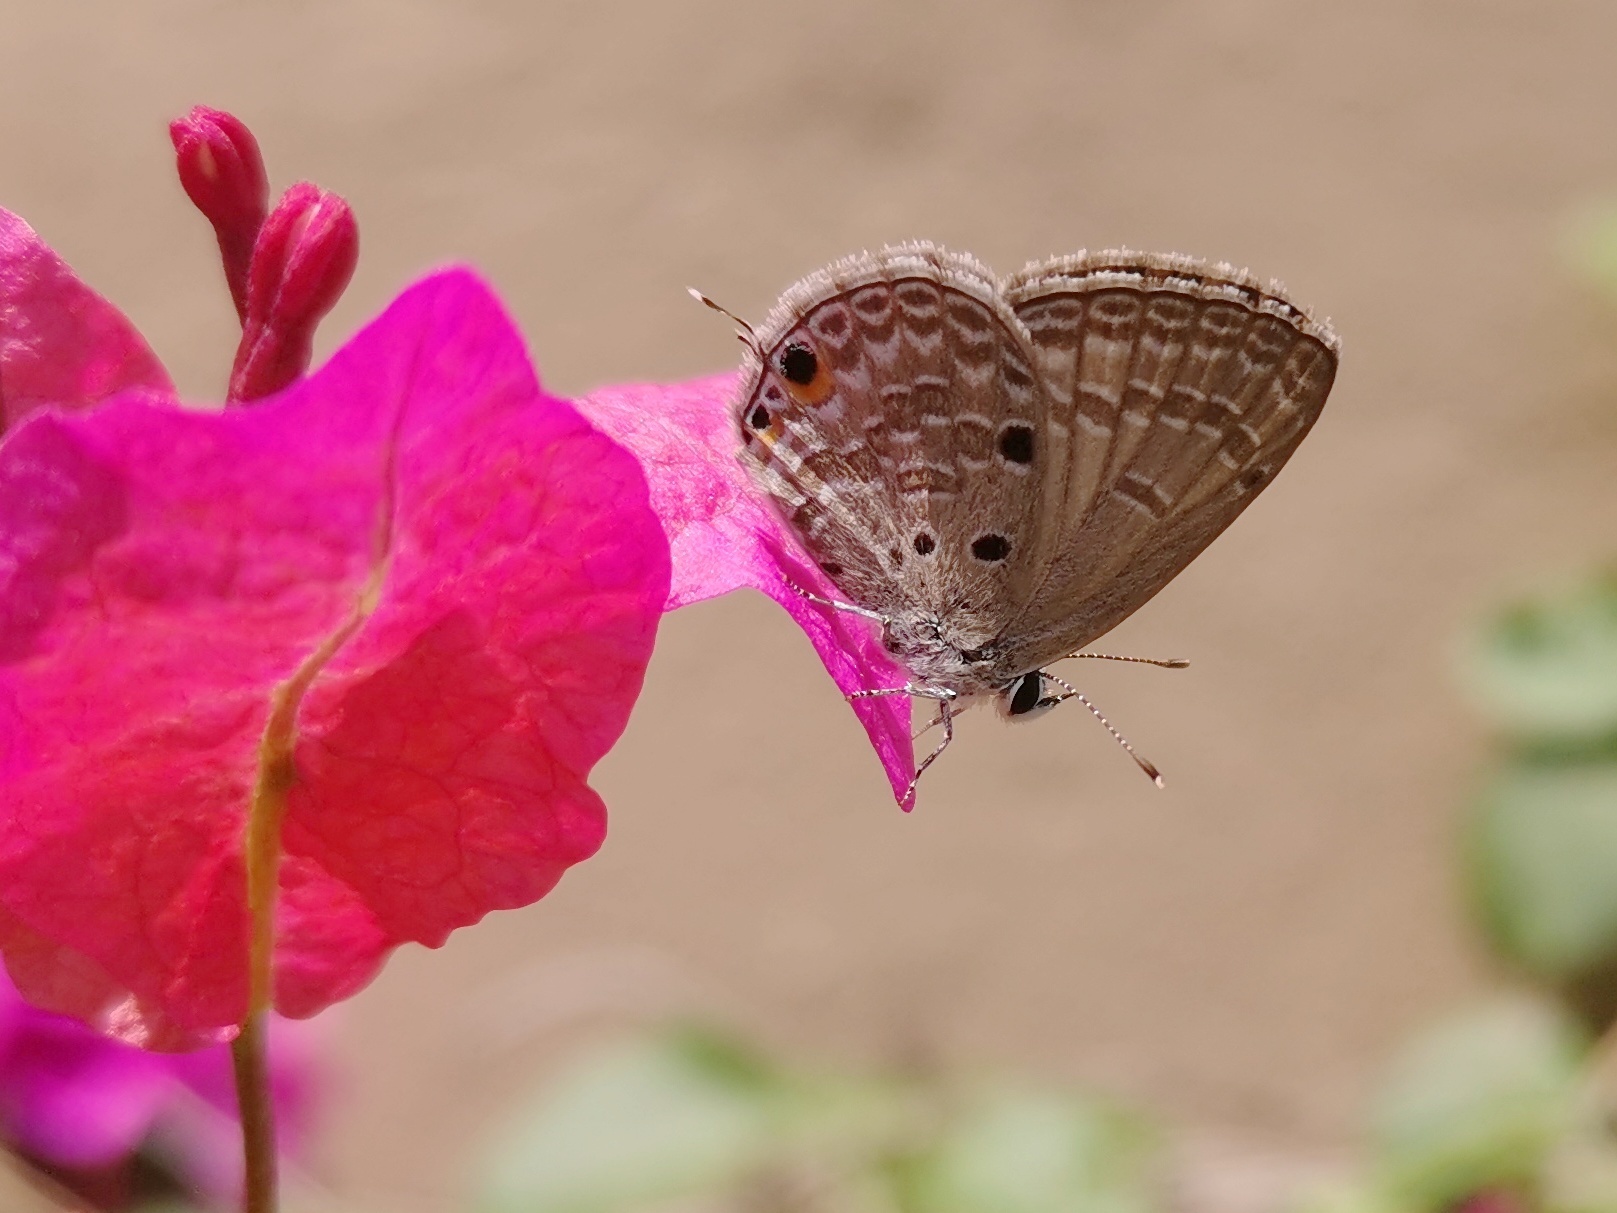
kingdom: Animalia
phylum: Arthropoda
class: Insecta
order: Lepidoptera
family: Lycaenidae
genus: Luthrodes
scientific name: Luthrodes pandava
